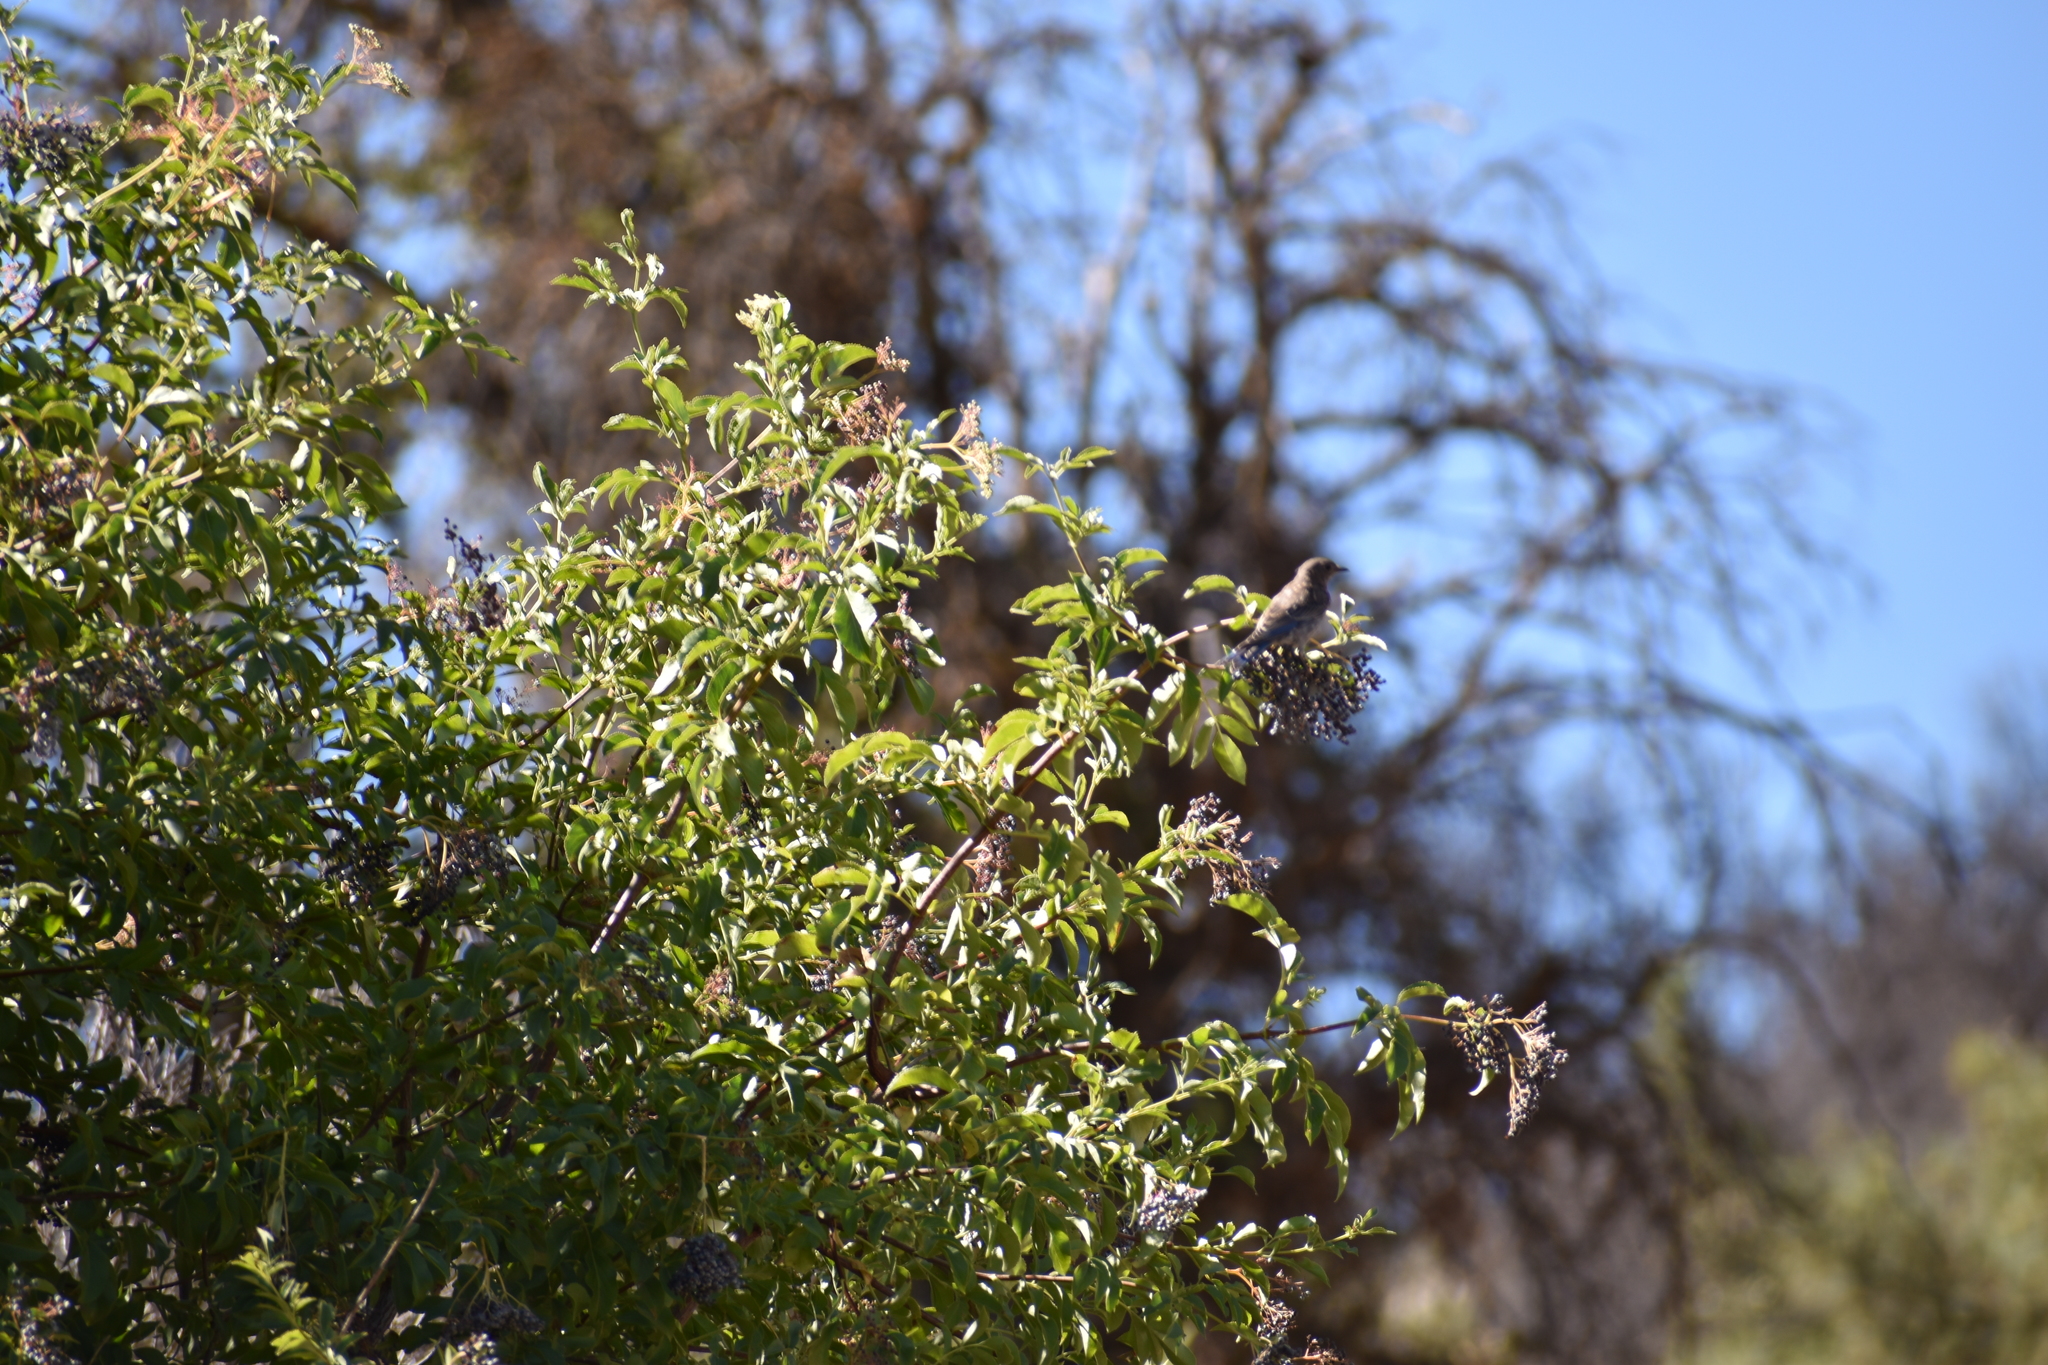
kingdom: Animalia
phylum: Chordata
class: Aves
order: Passeriformes
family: Turdidae
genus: Sialia
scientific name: Sialia mexicana
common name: Western bluebird
